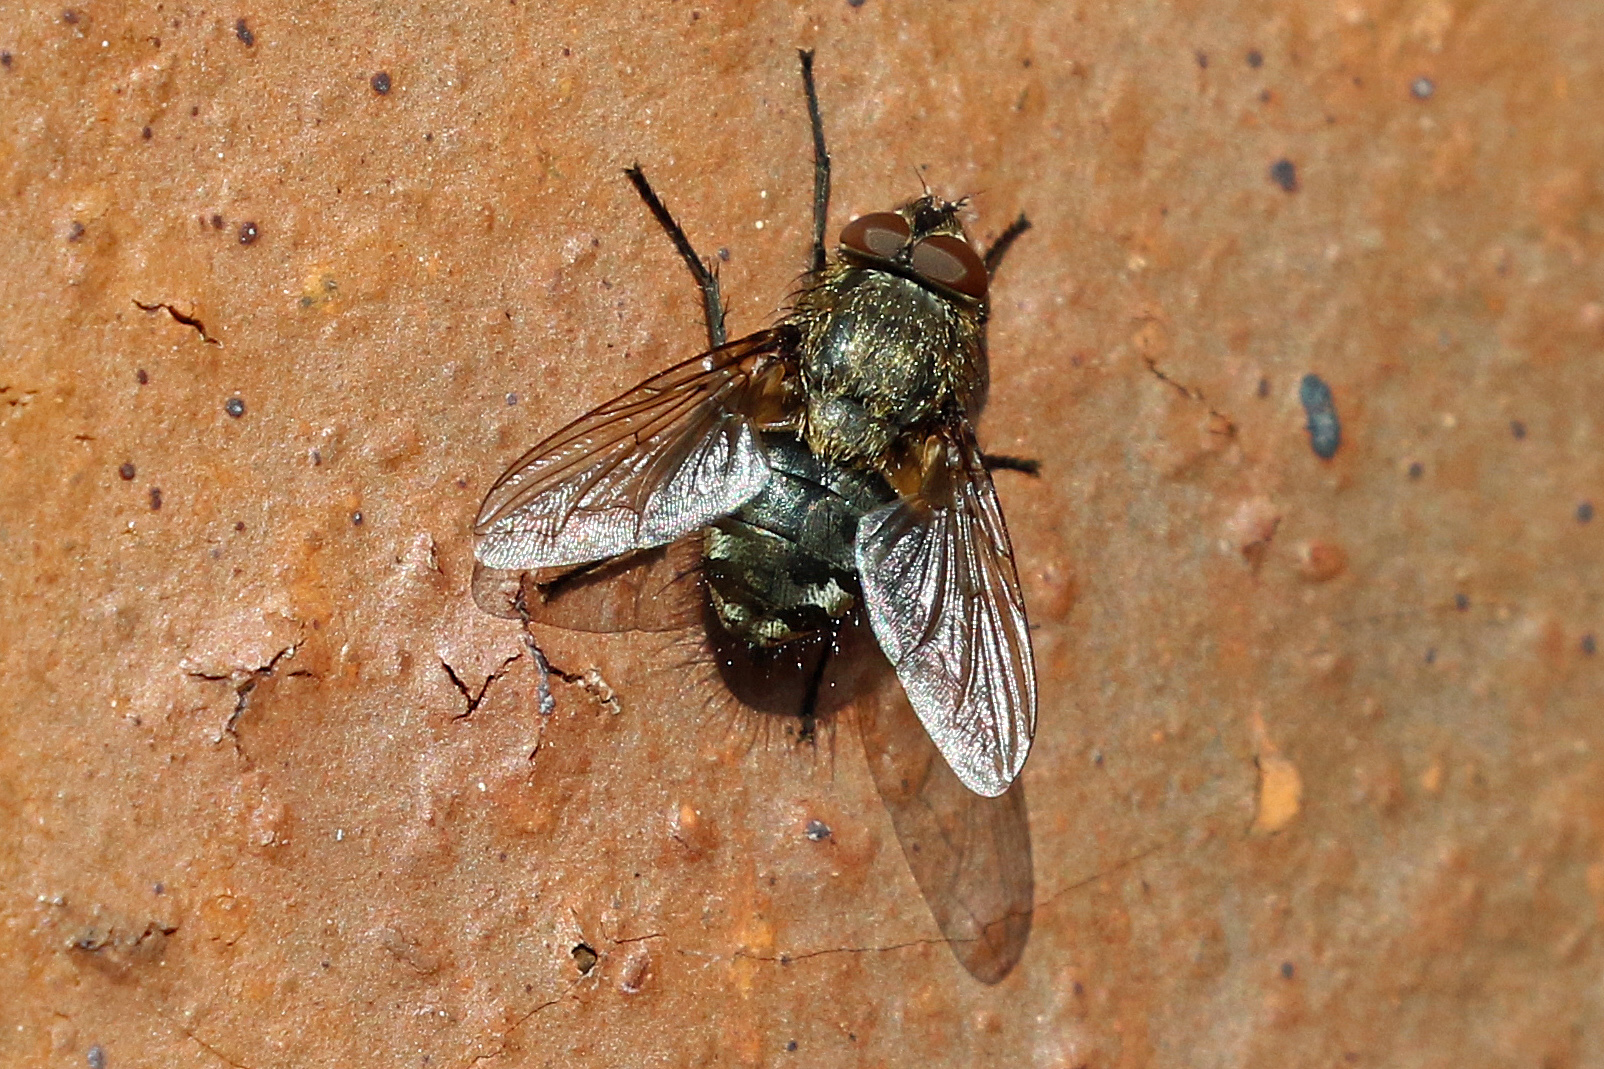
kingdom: Animalia
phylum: Arthropoda
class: Insecta
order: Diptera
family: Polleniidae
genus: Pollenia
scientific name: Pollenia
